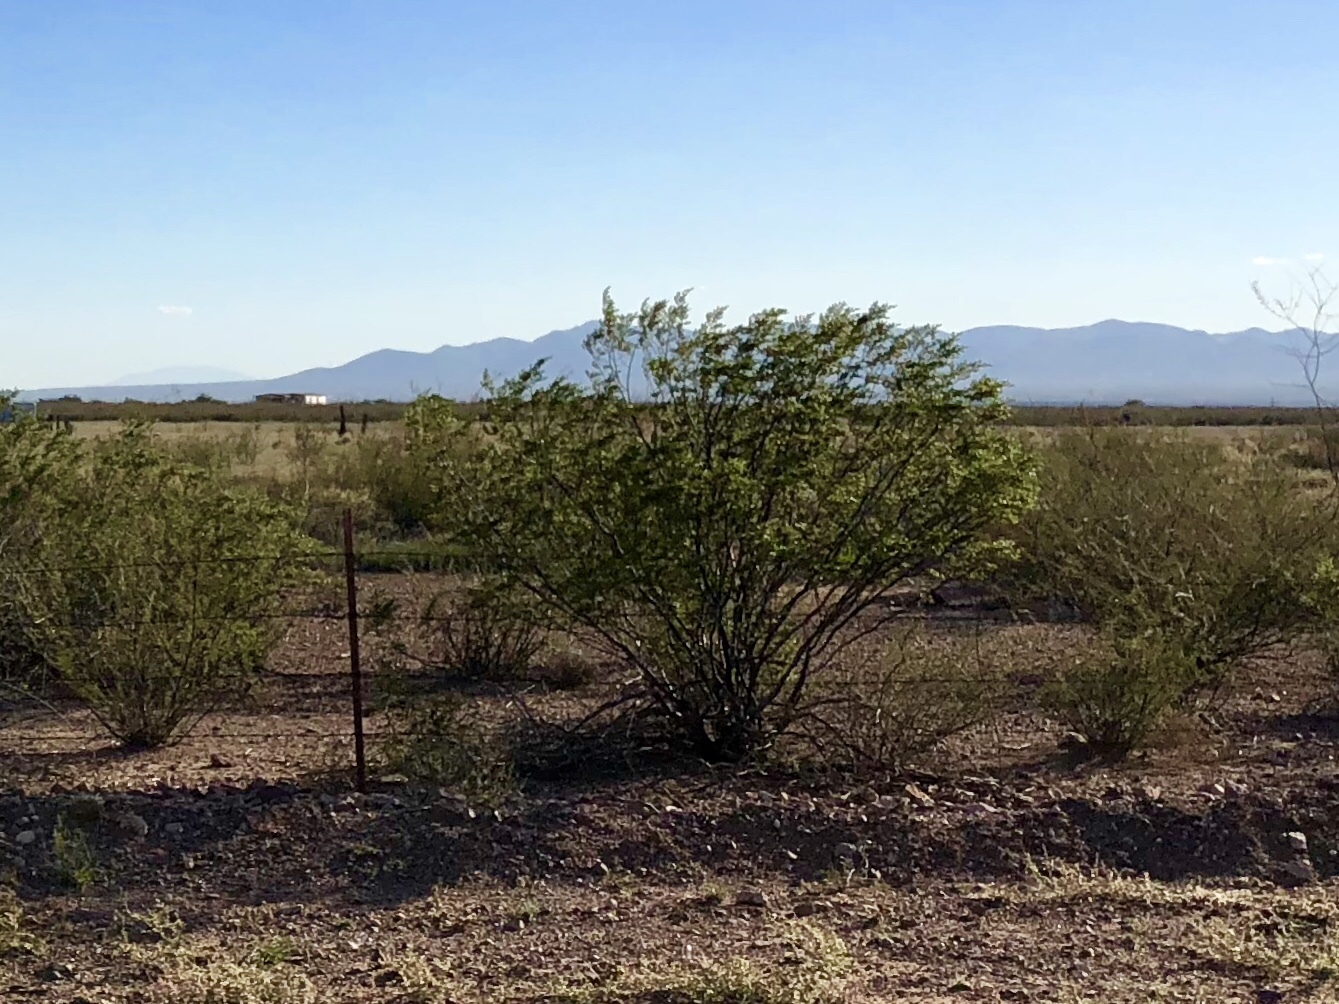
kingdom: Plantae
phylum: Tracheophyta
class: Magnoliopsida
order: Zygophyllales
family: Zygophyllaceae
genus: Larrea
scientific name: Larrea tridentata
